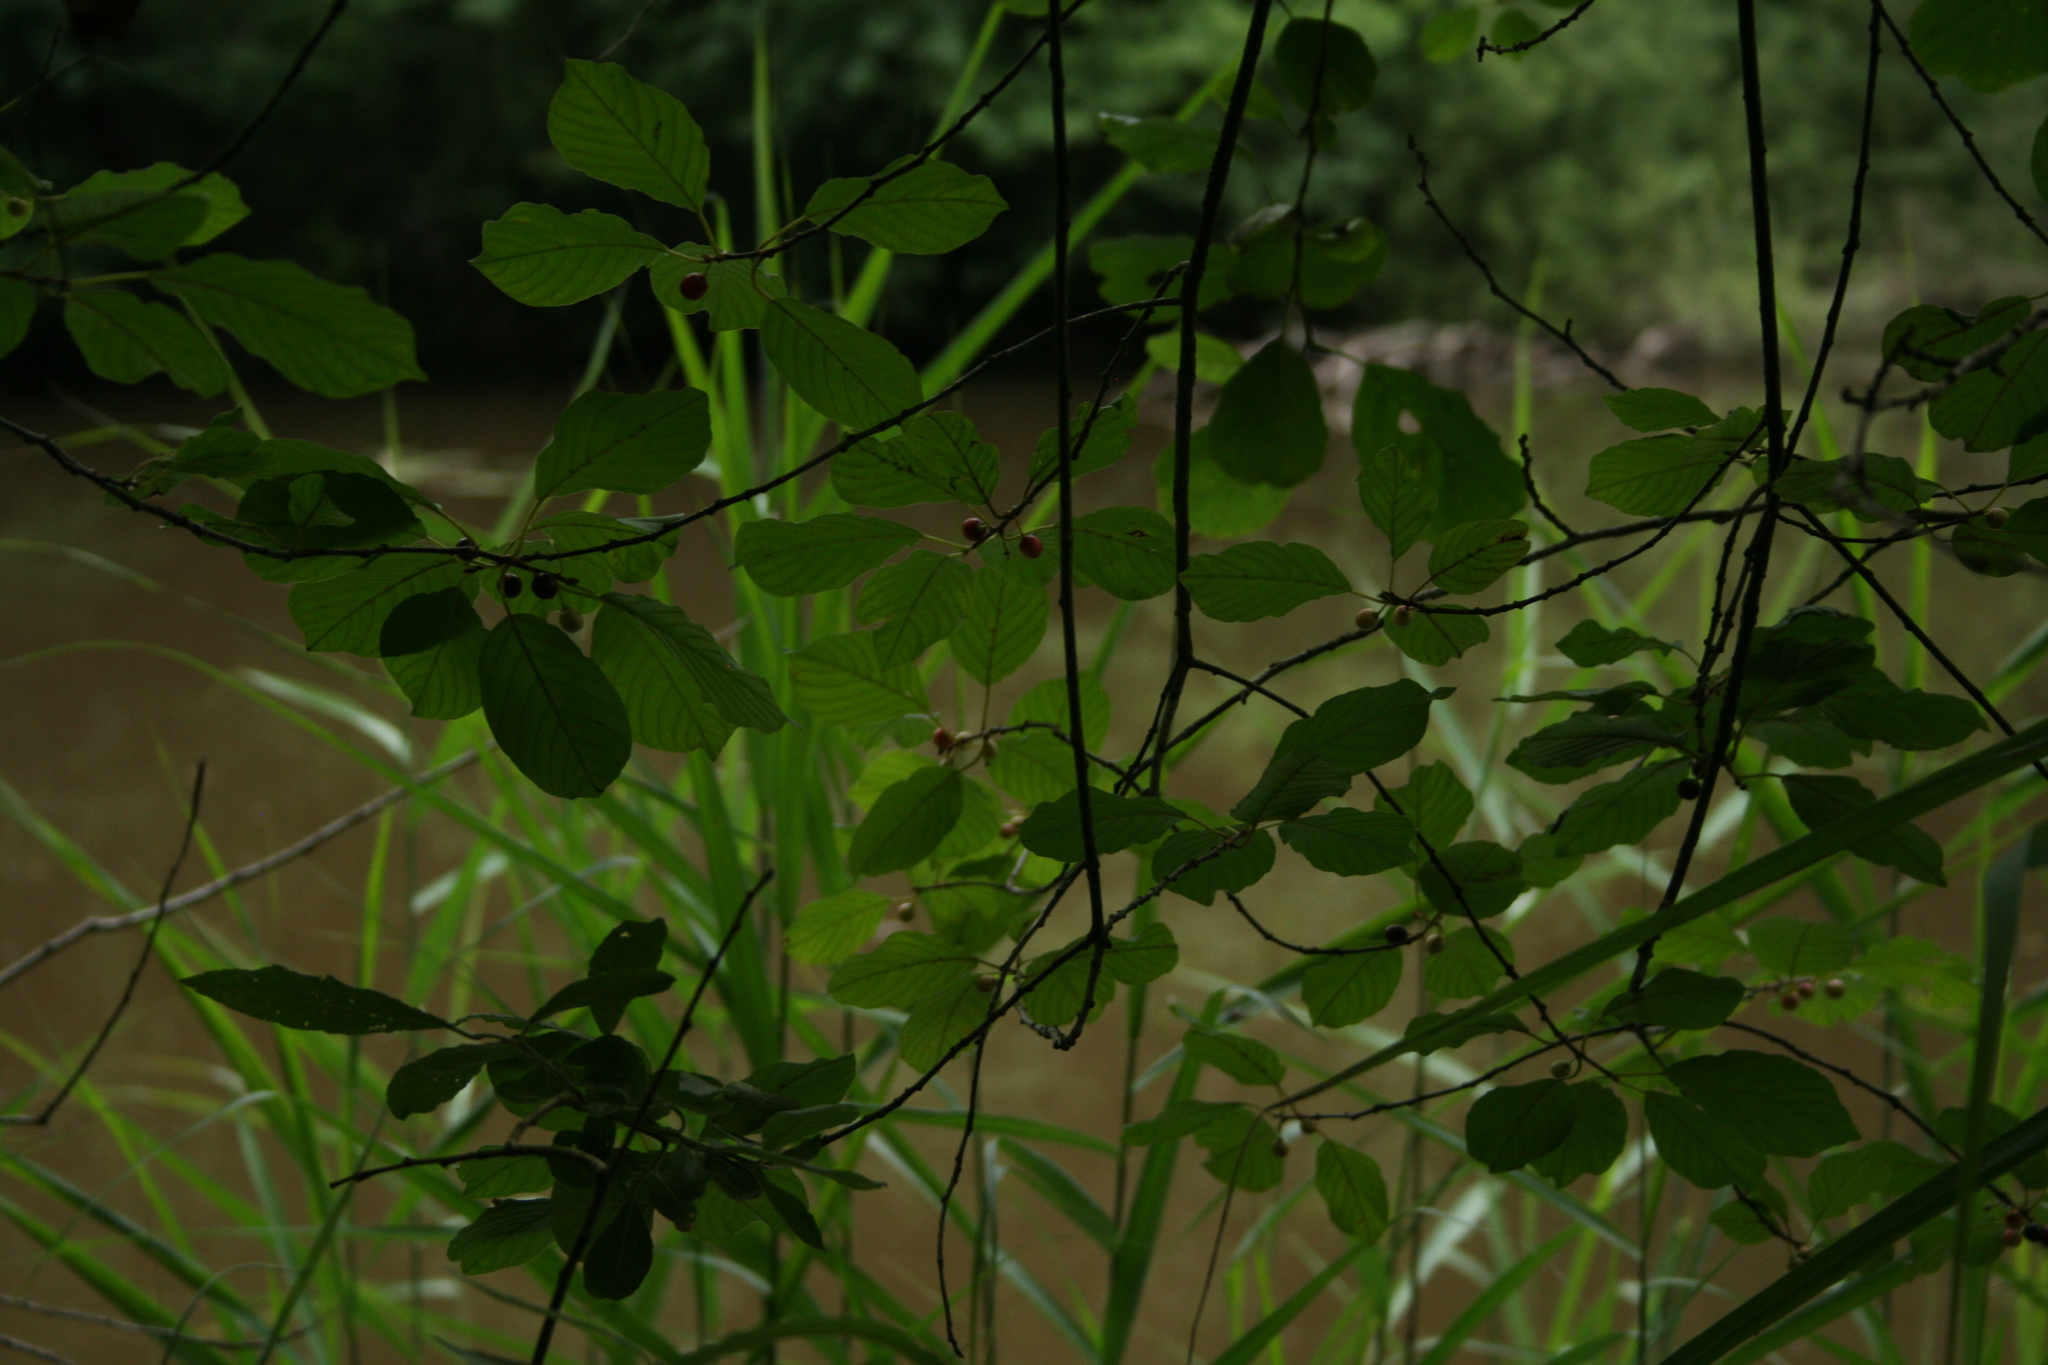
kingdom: Plantae
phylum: Tracheophyta
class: Magnoliopsida
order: Rosales
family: Rhamnaceae
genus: Frangula
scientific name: Frangula alnus
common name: Alder buckthorn
